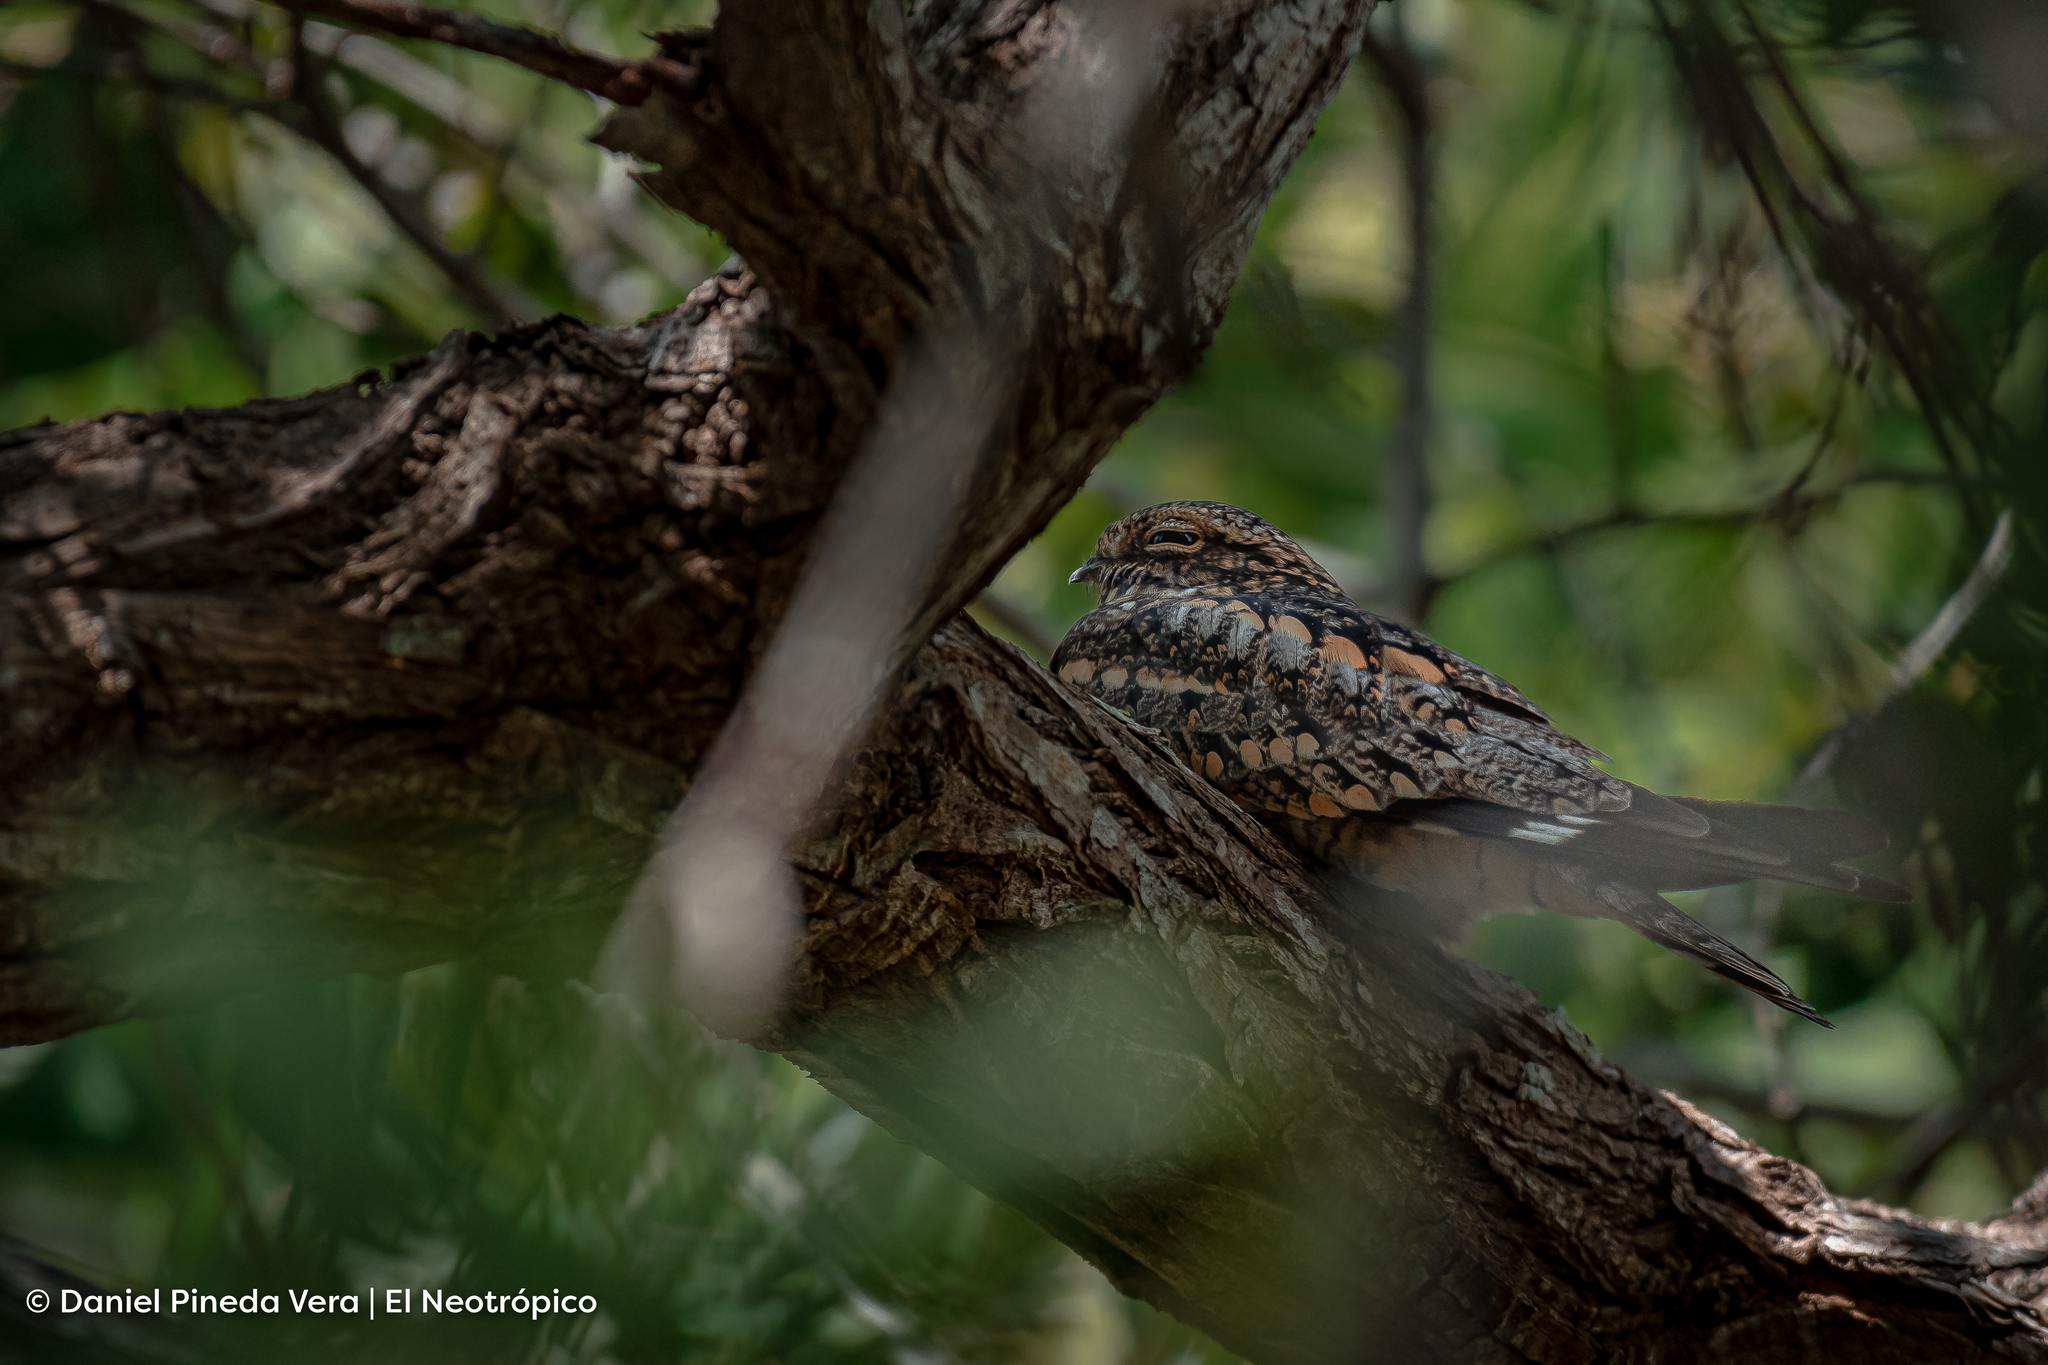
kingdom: Animalia
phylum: Chordata
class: Aves
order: Caprimulgiformes
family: Caprimulgidae
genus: Chordeiles
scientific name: Chordeiles acutipennis
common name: Lesser nighthawk
